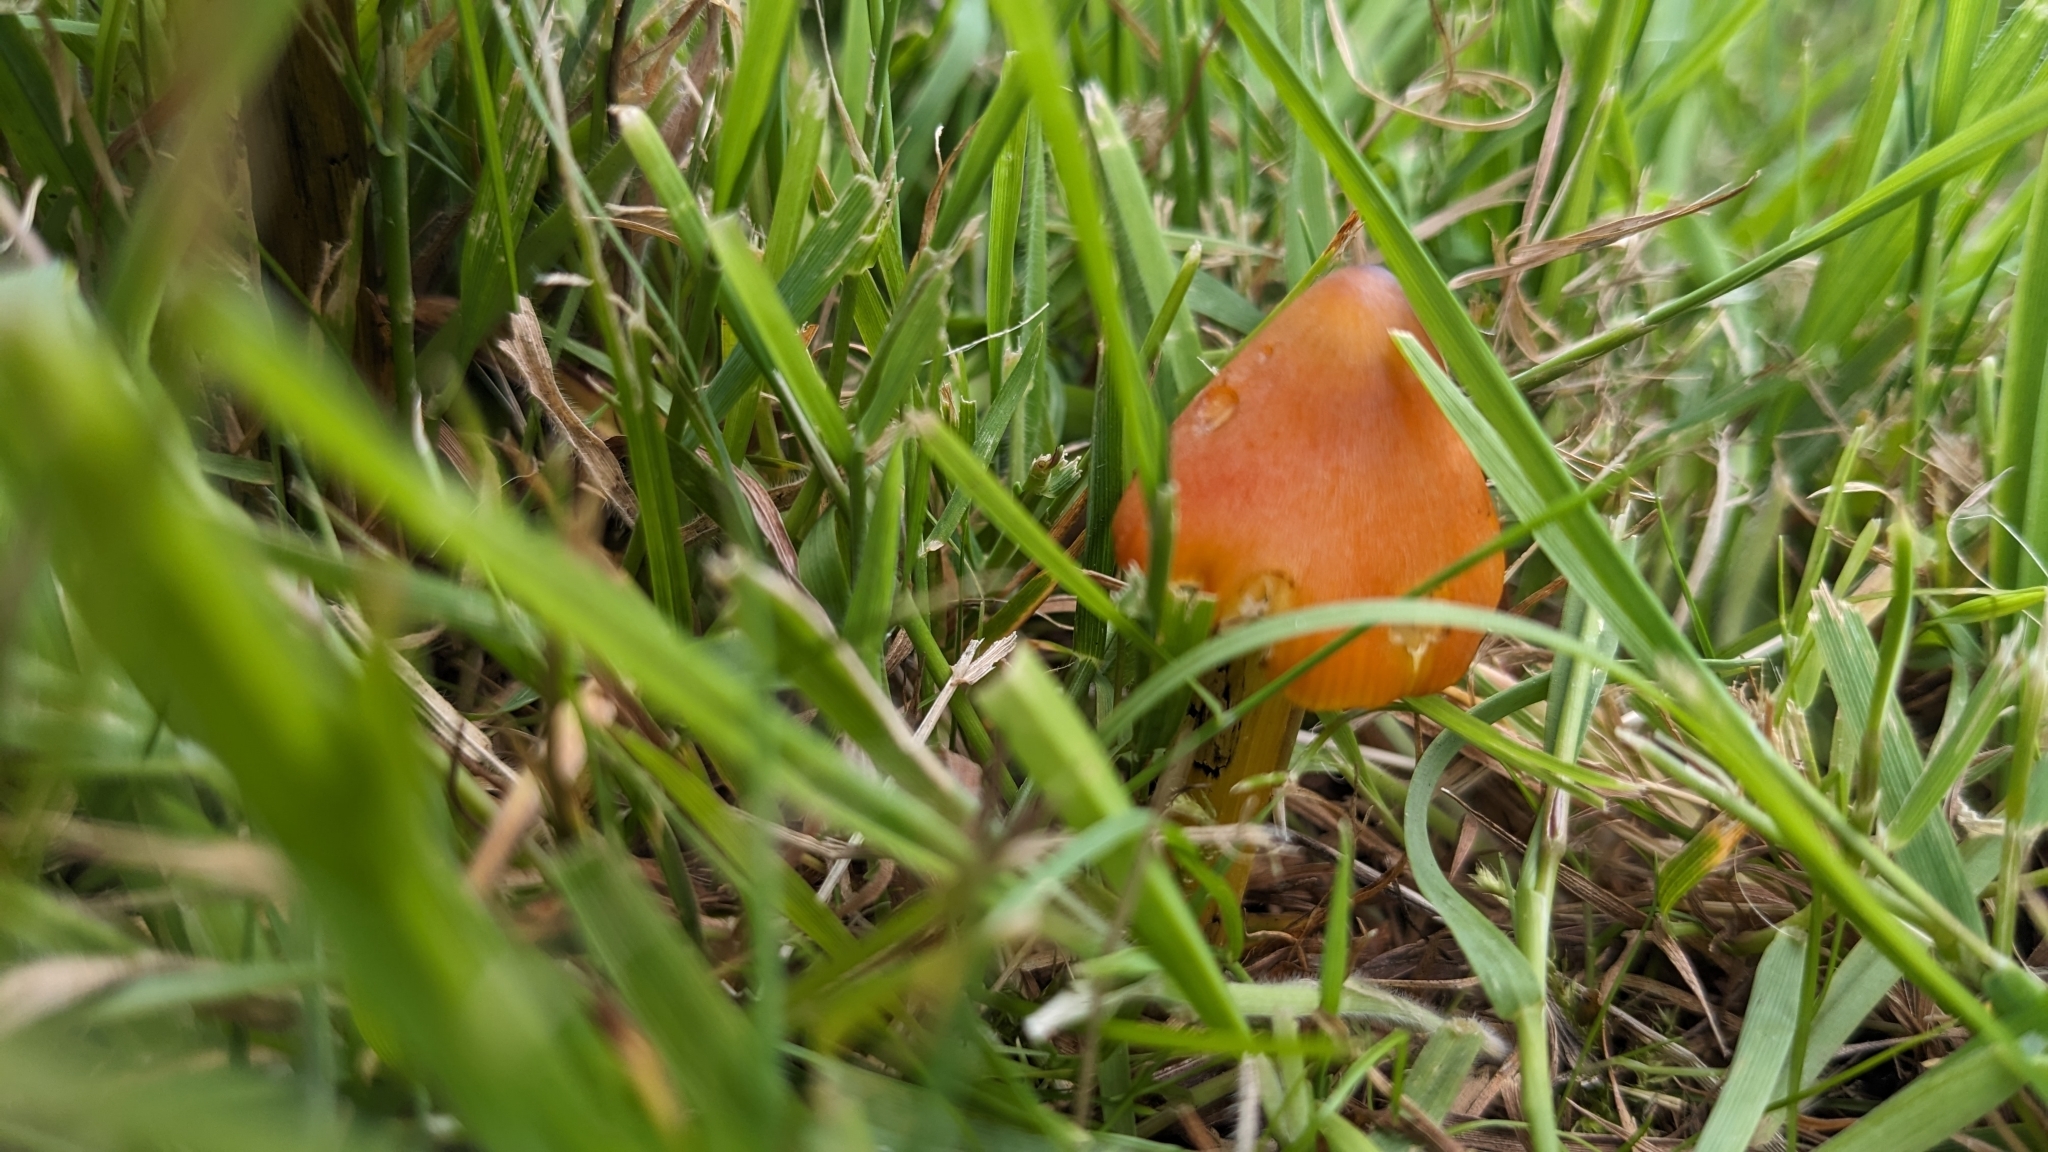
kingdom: Fungi
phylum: Basidiomycota
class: Agaricomycetes
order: Agaricales
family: Hygrophoraceae
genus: Hygrocybe
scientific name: Hygrocybe conica
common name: Blackening wax-cap
